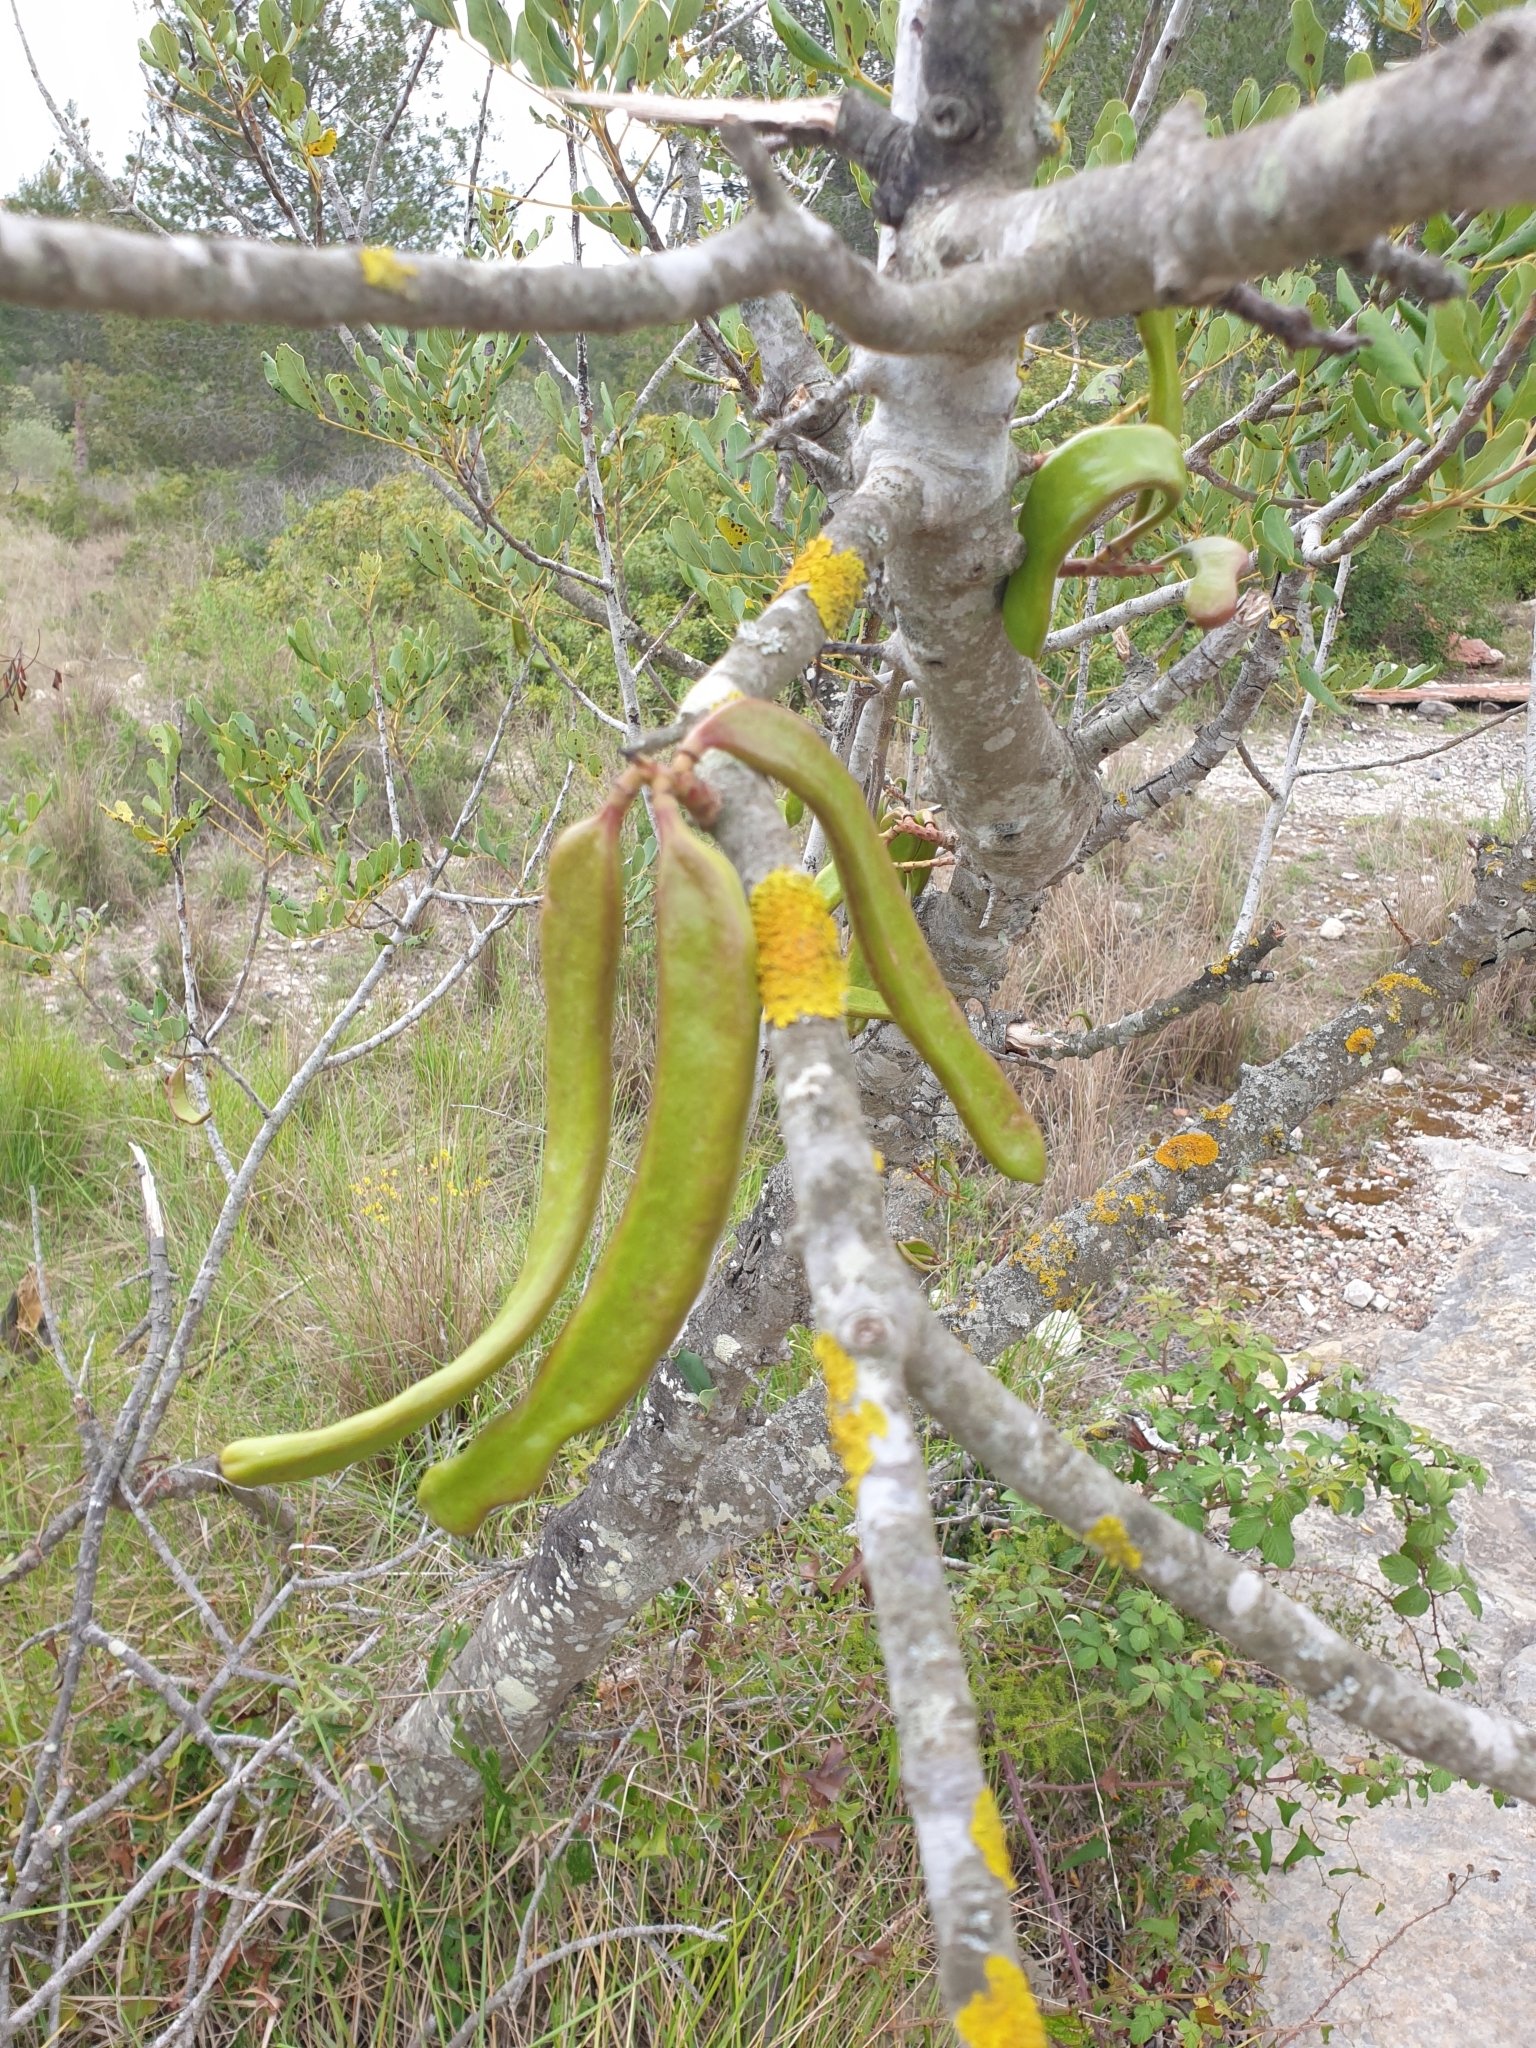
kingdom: Plantae
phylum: Tracheophyta
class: Magnoliopsida
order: Fabales
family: Fabaceae
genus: Ceratonia
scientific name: Ceratonia siliqua
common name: Carob
